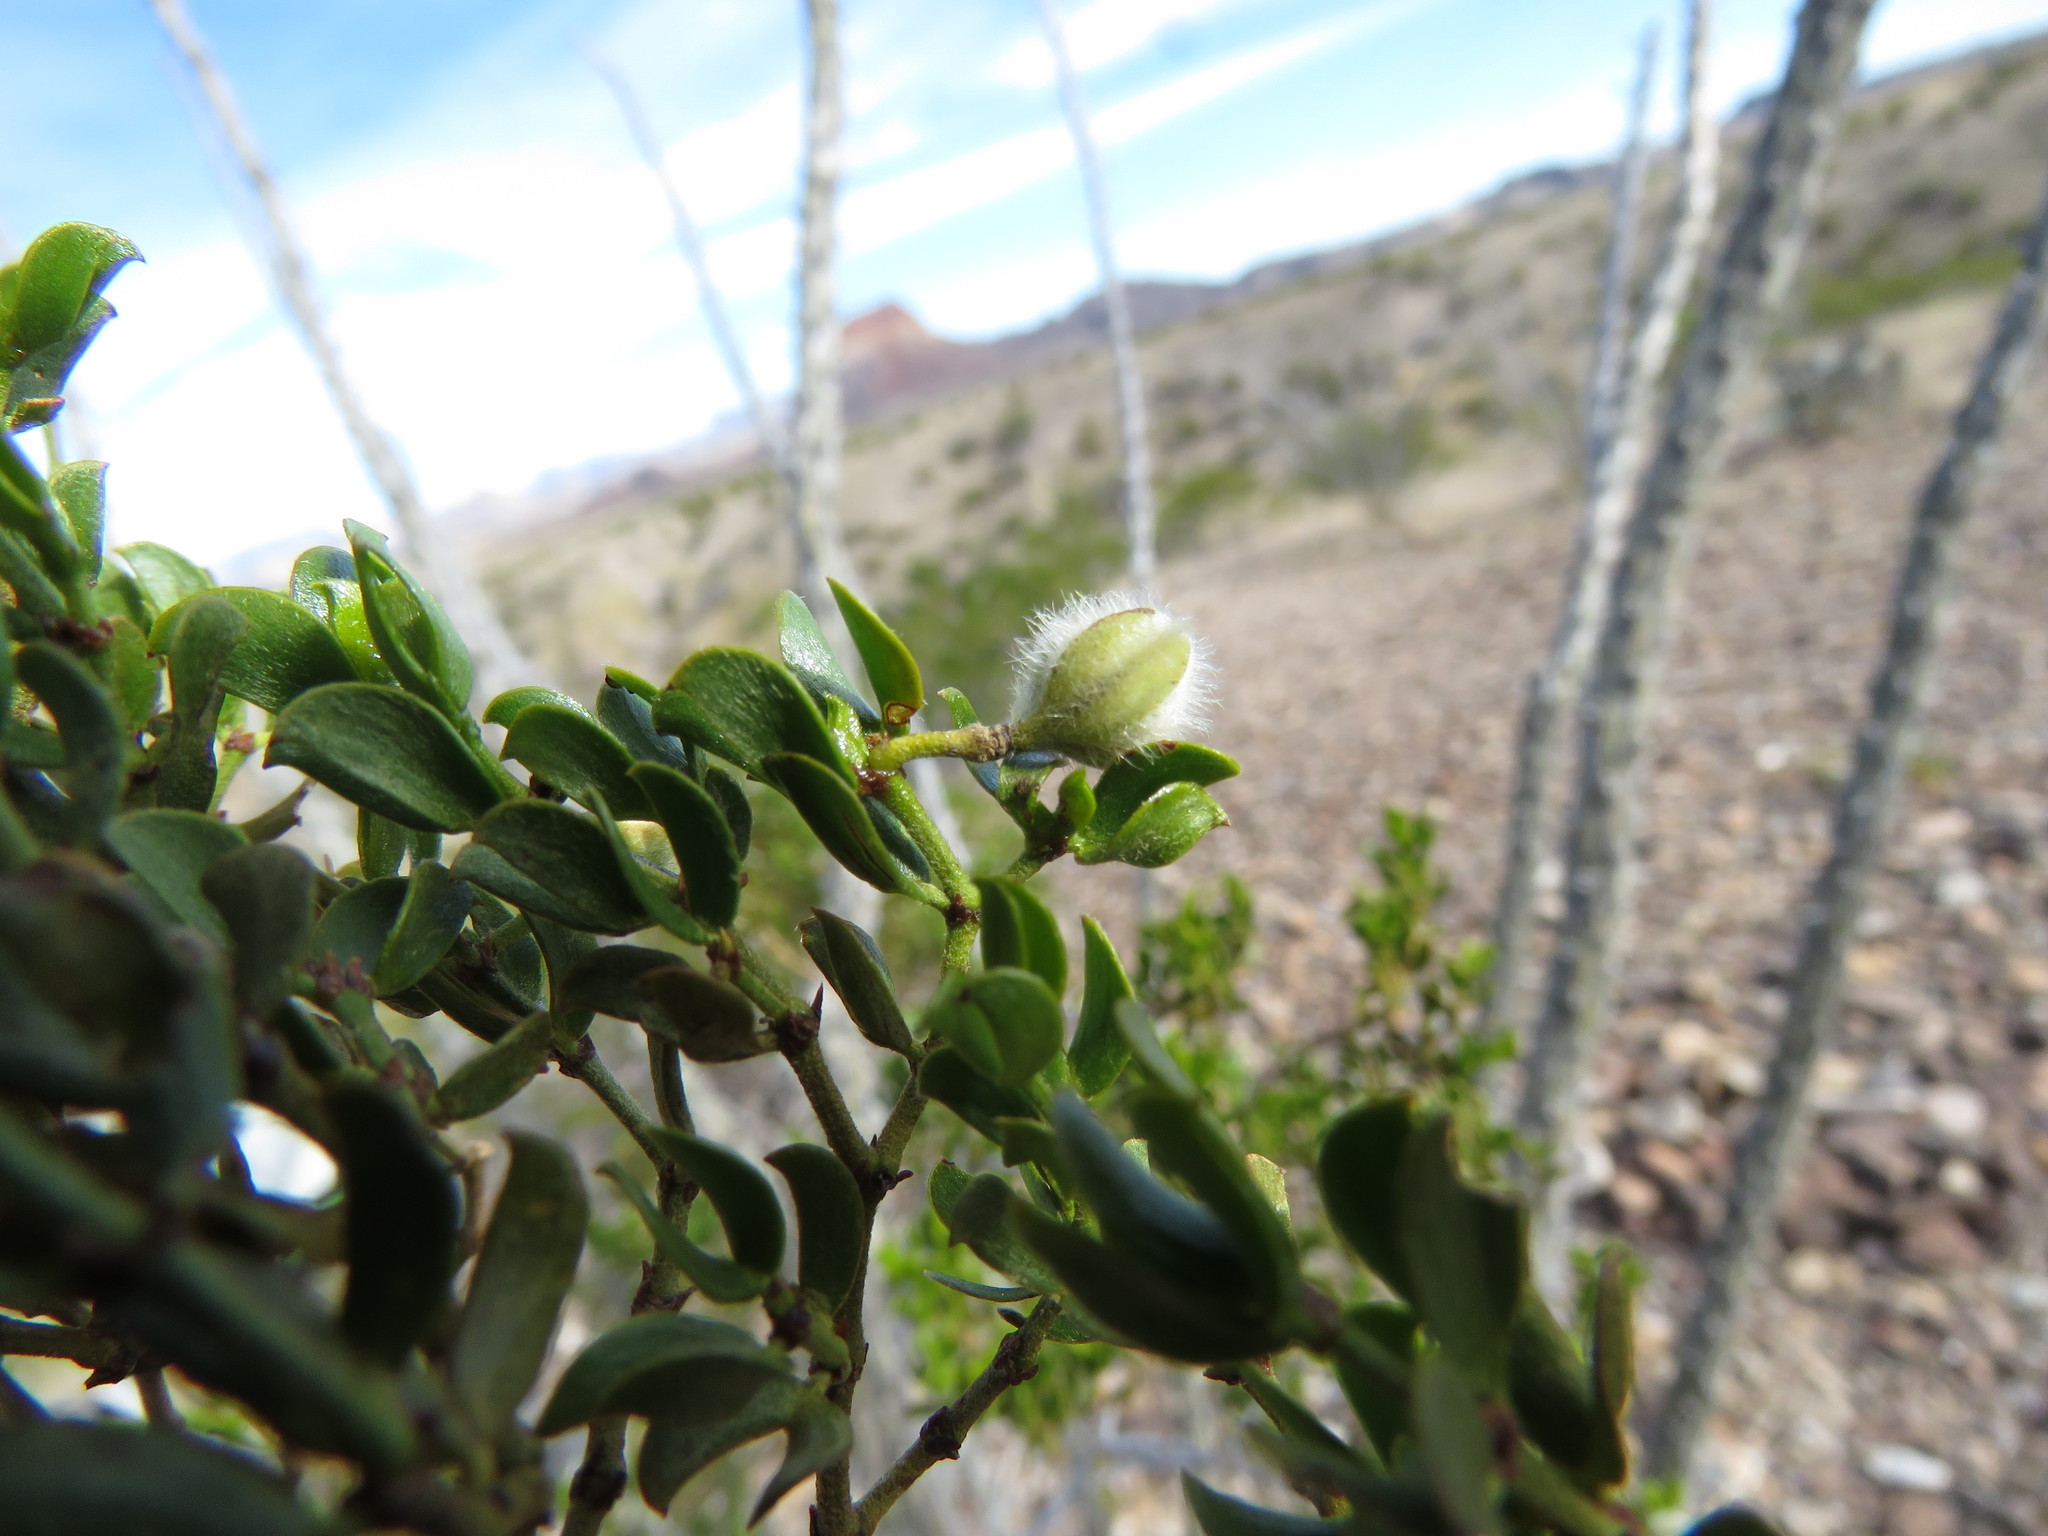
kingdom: Plantae
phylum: Tracheophyta
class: Magnoliopsida
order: Zygophyllales
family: Zygophyllaceae
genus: Larrea
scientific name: Larrea tridentata
